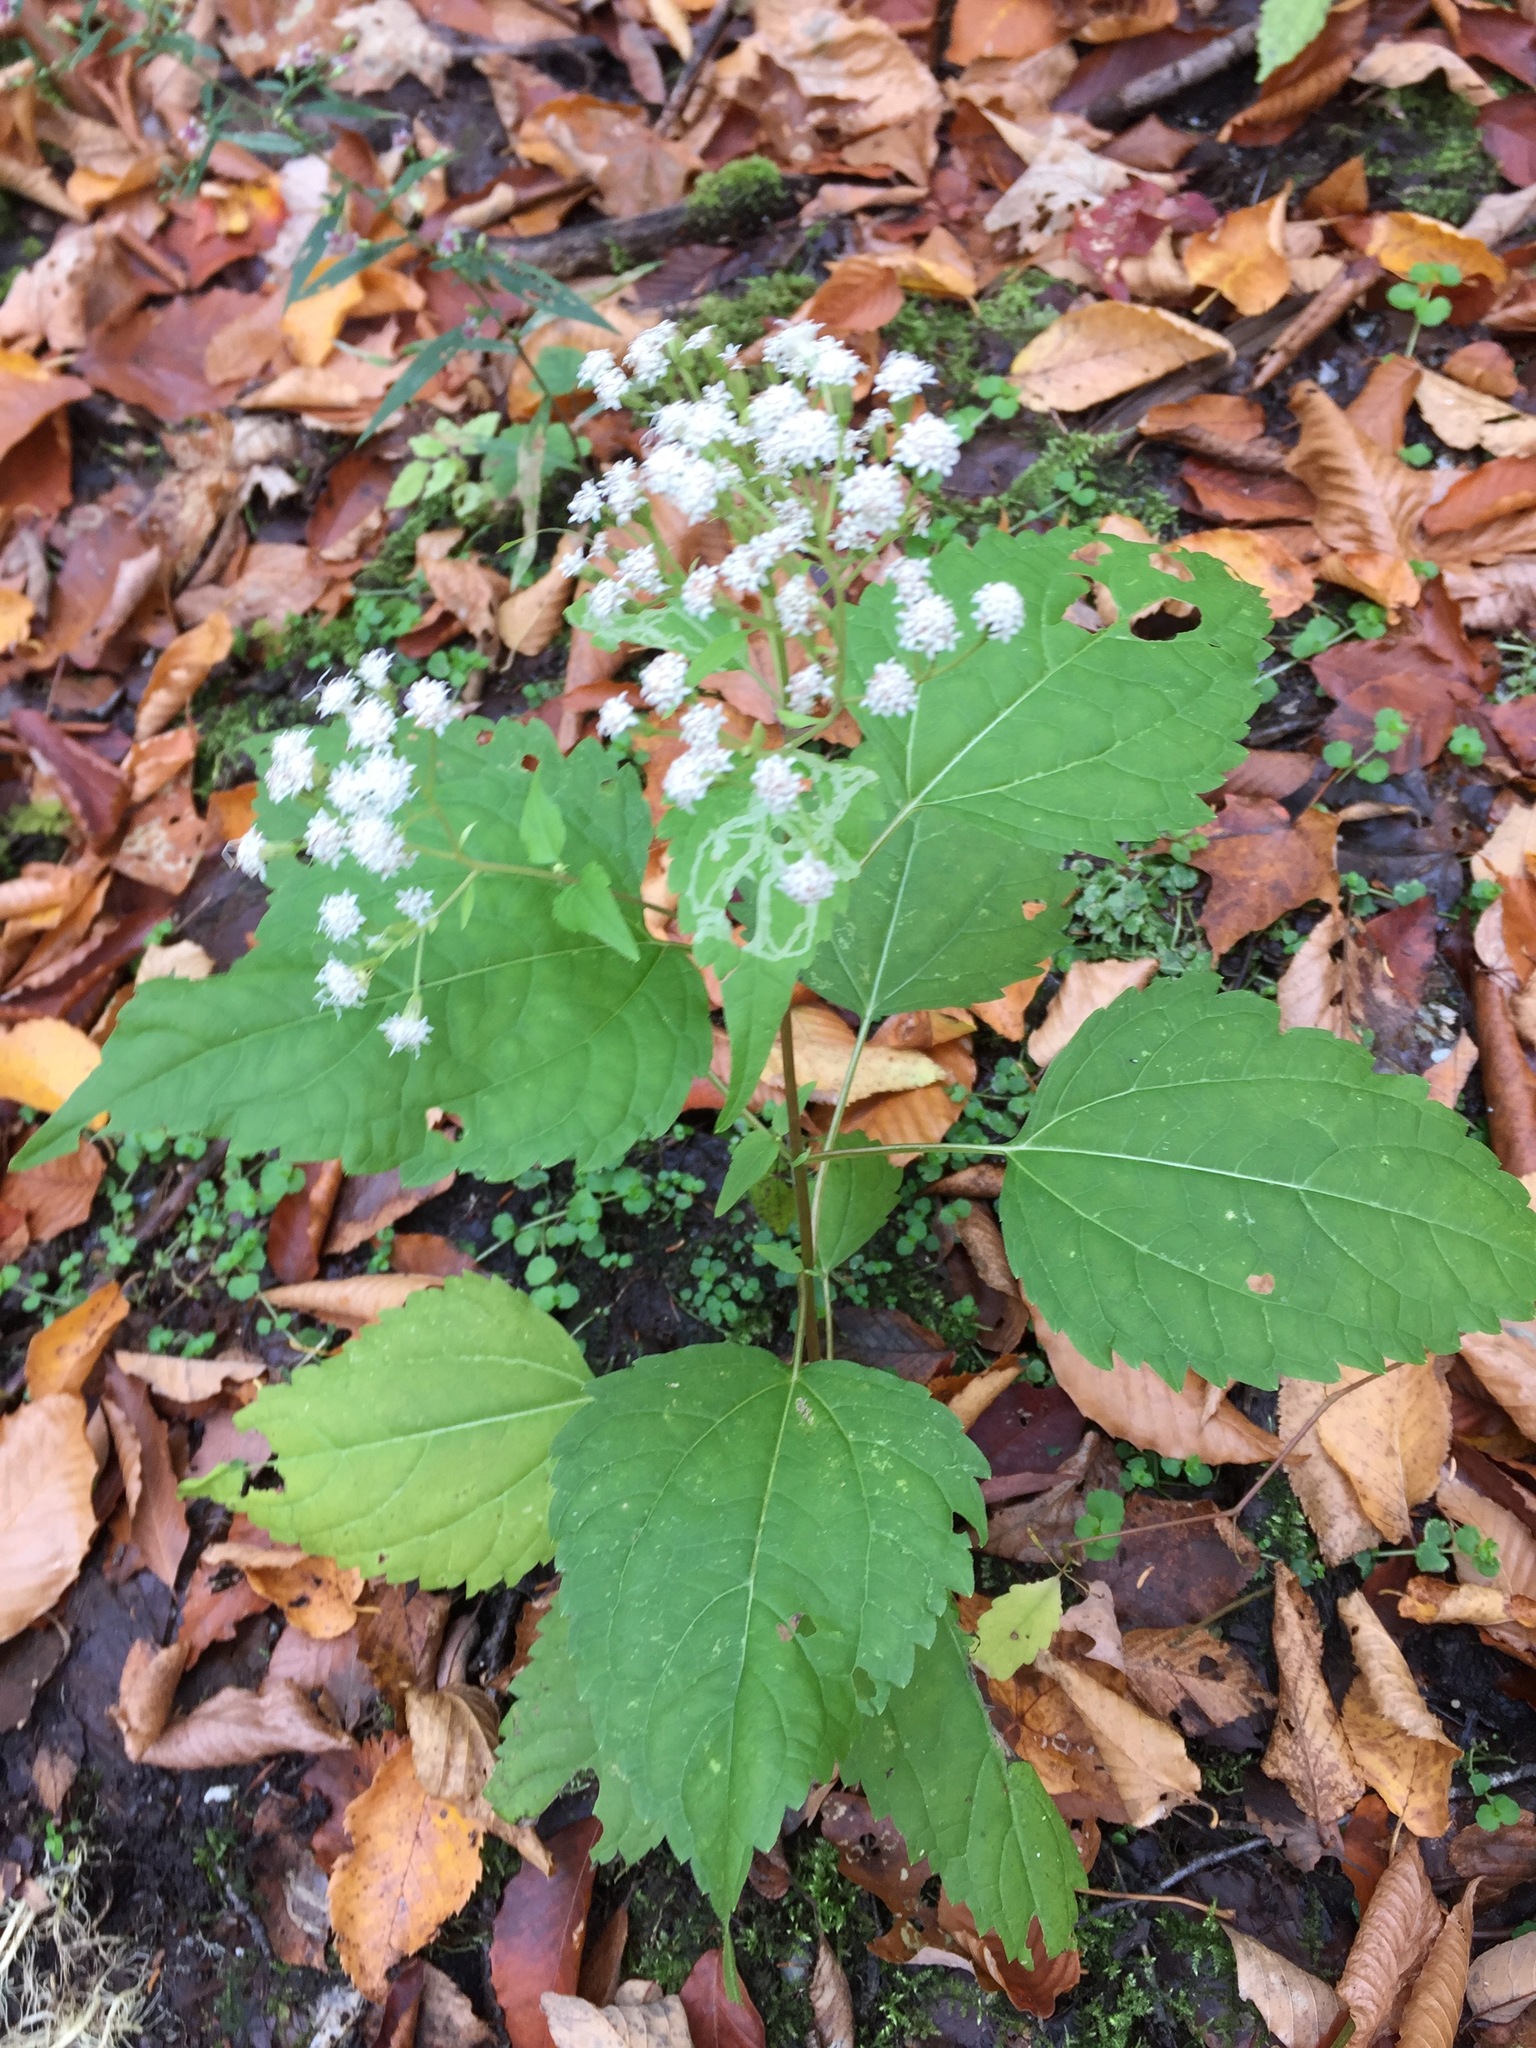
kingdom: Plantae
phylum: Tracheophyta
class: Magnoliopsida
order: Asterales
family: Asteraceae
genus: Ageratina
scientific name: Ageratina altissima
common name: White snakeroot
